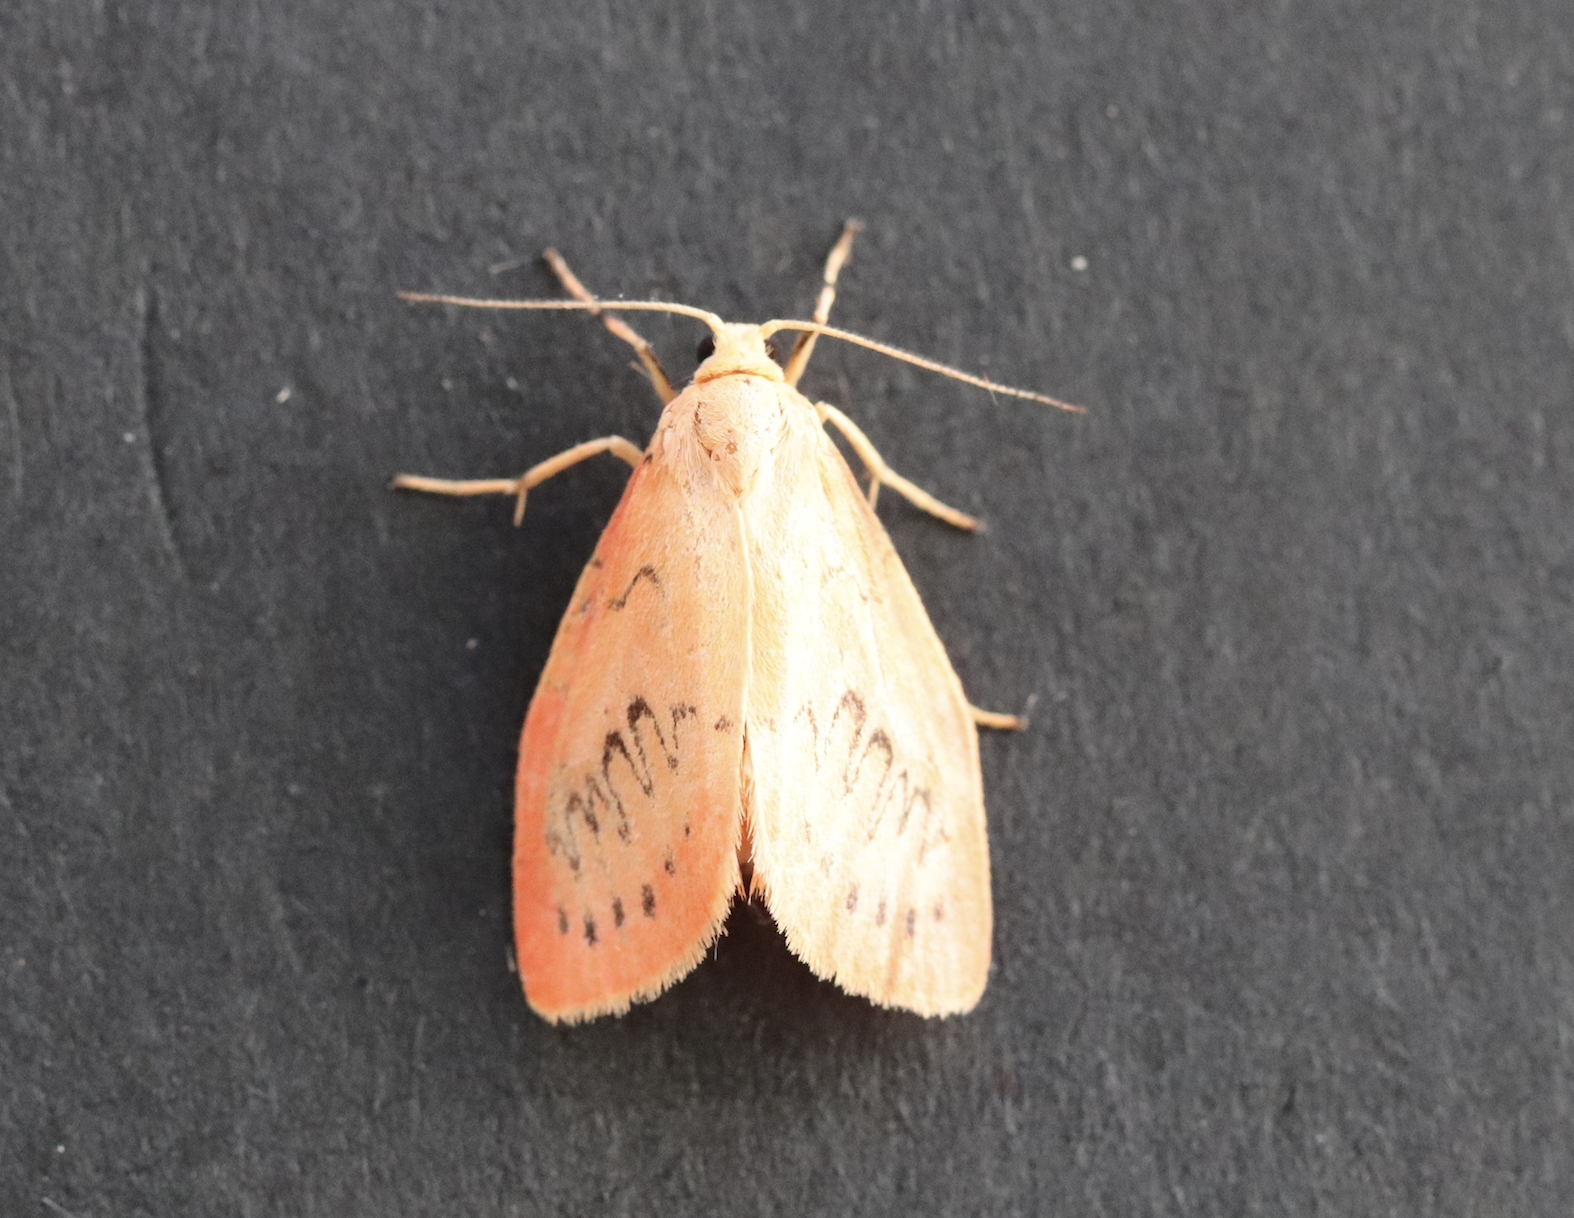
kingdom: Animalia
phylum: Arthropoda
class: Insecta
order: Lepidoptera
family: Erebidae
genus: Miltochrista
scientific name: Miltochrista miniata
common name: Rosy footman
